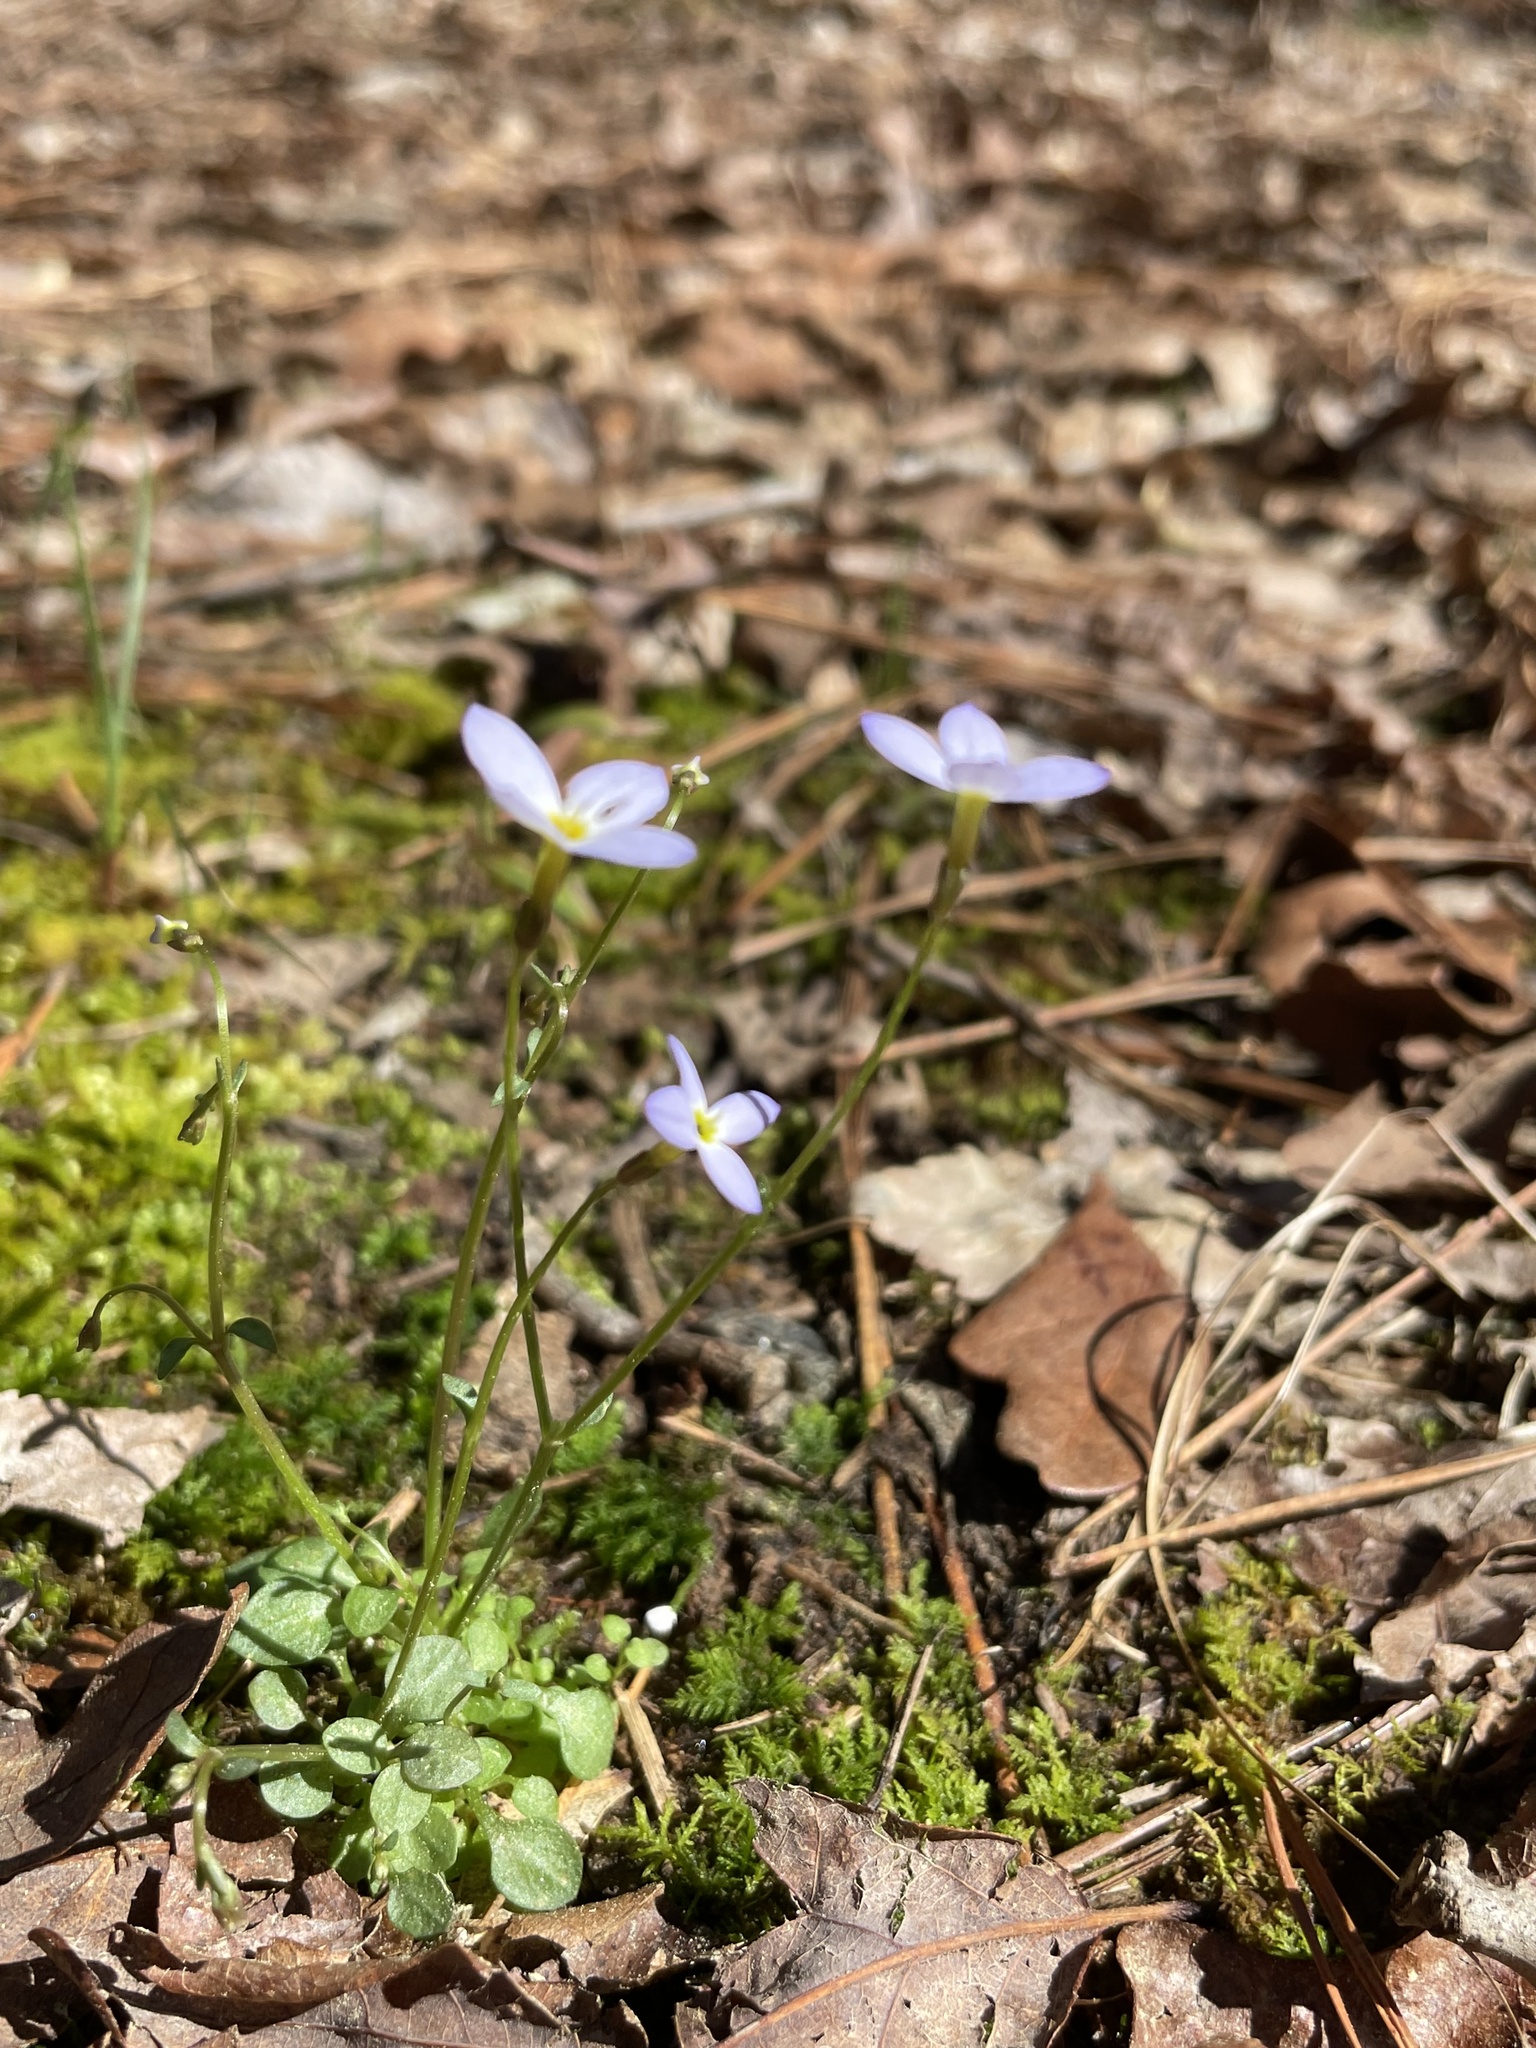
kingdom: Plantae
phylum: Tracheophyta
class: Magnoliopsida
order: Gentianales
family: Rubiaceae
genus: Houstonia
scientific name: Houstonia caerulea
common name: Bluets
